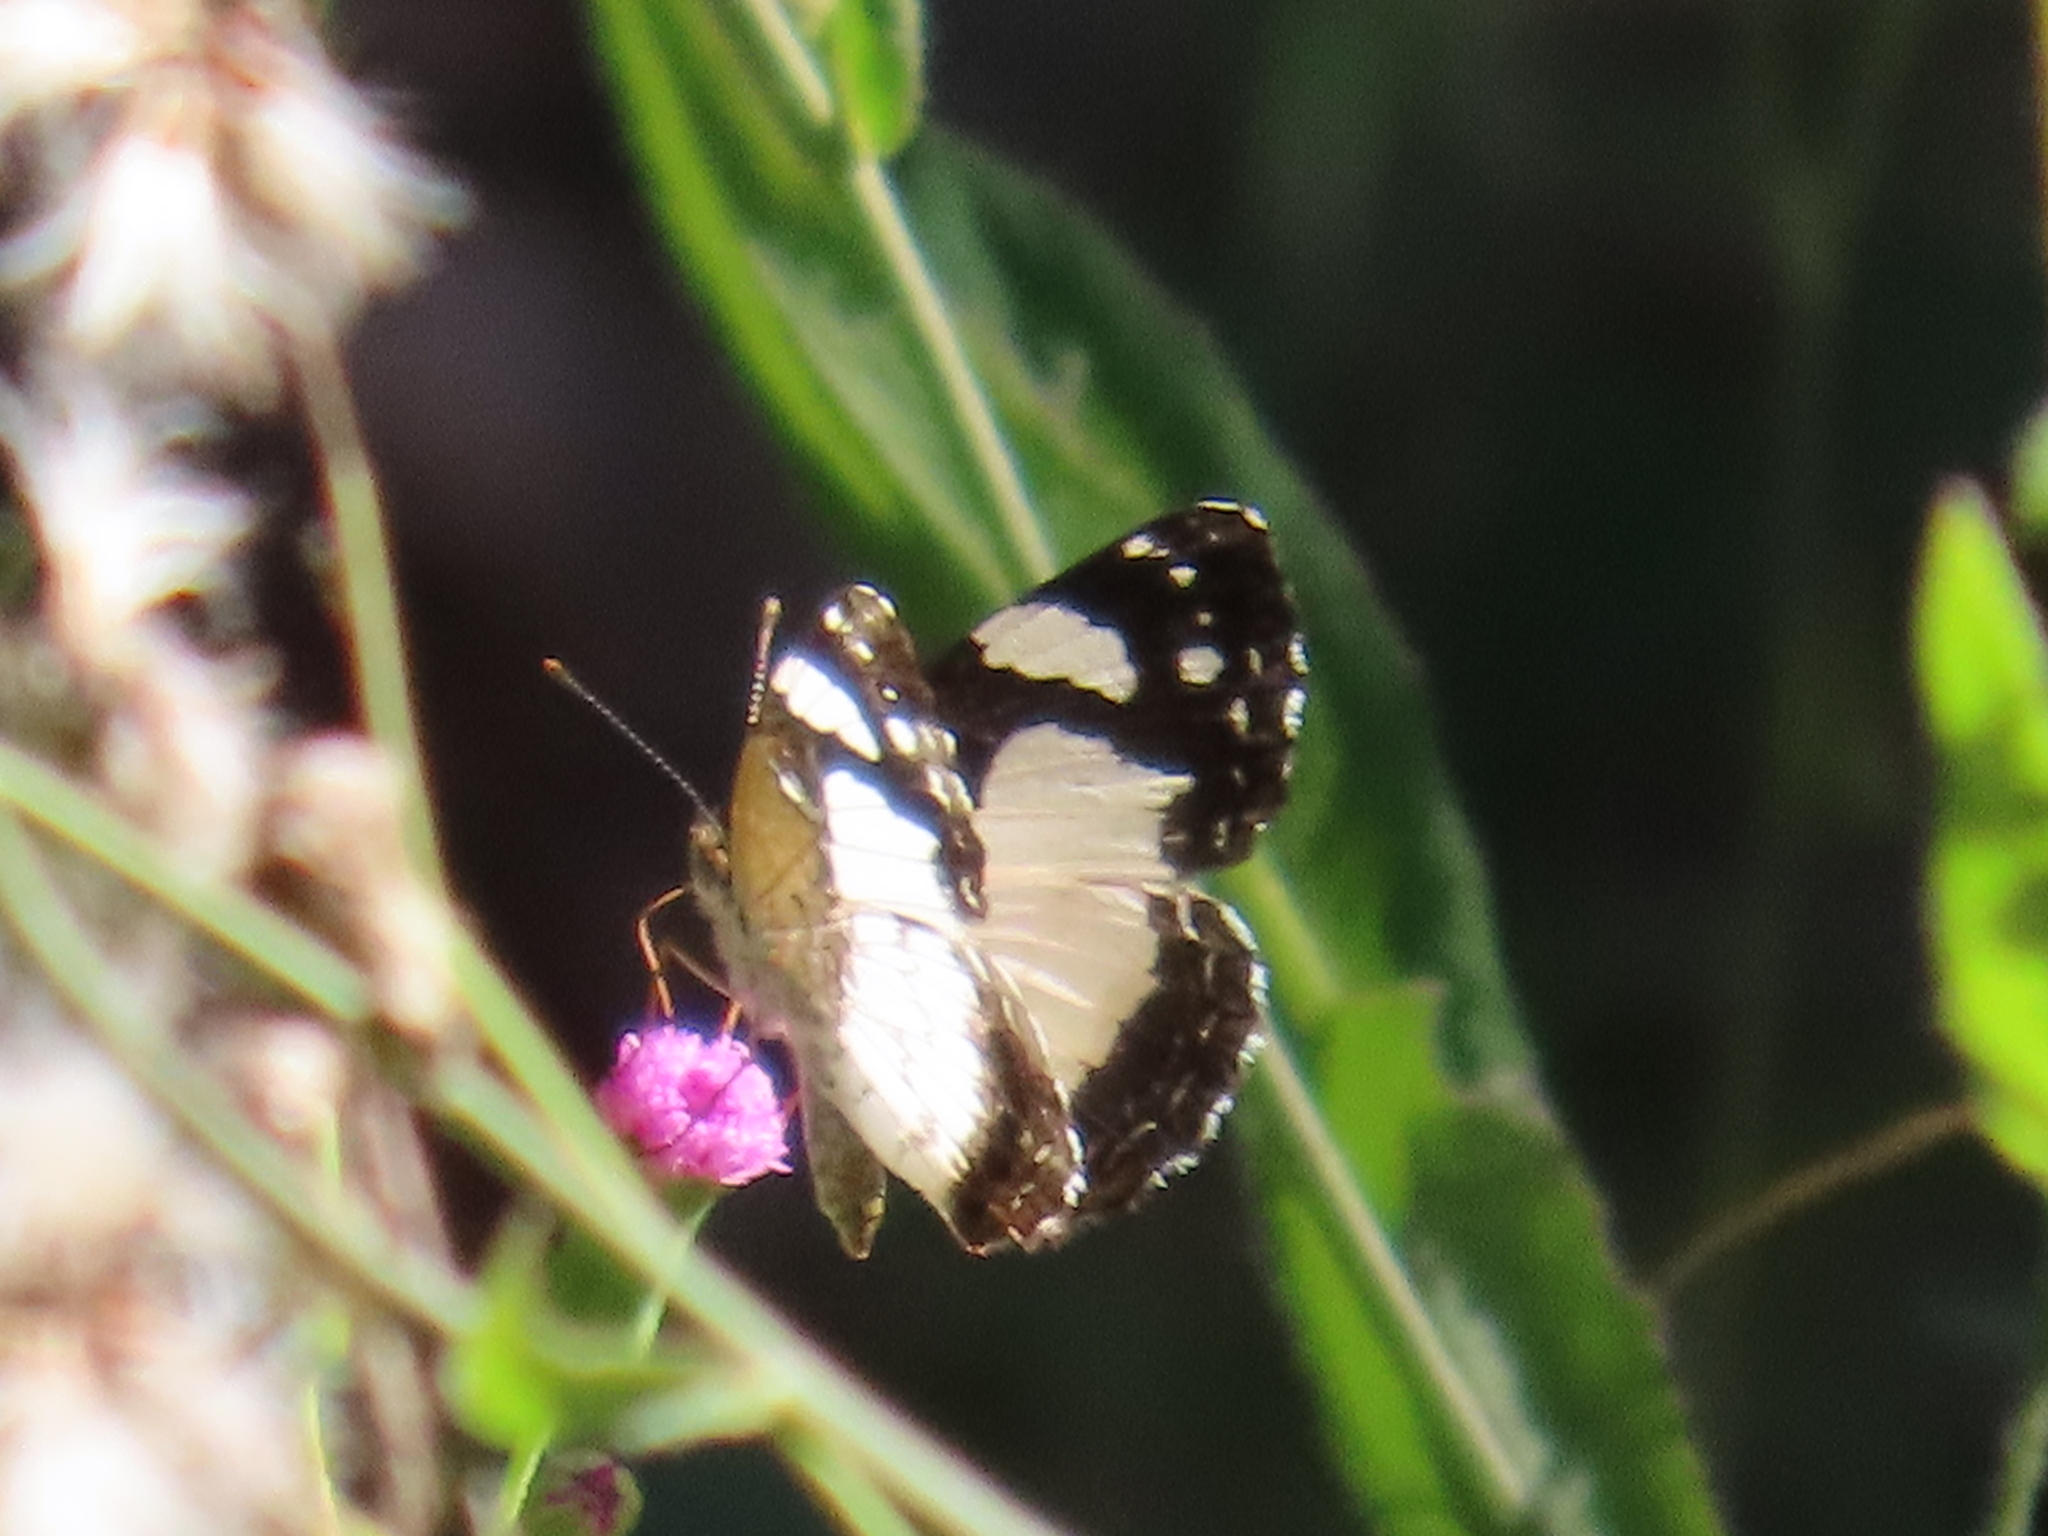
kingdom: Animalia
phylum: Arthropoda
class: Insecta
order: Lepidoptera
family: Nymphalidae
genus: Janatella
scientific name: Janatella leucodesma
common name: Whitened crescent
